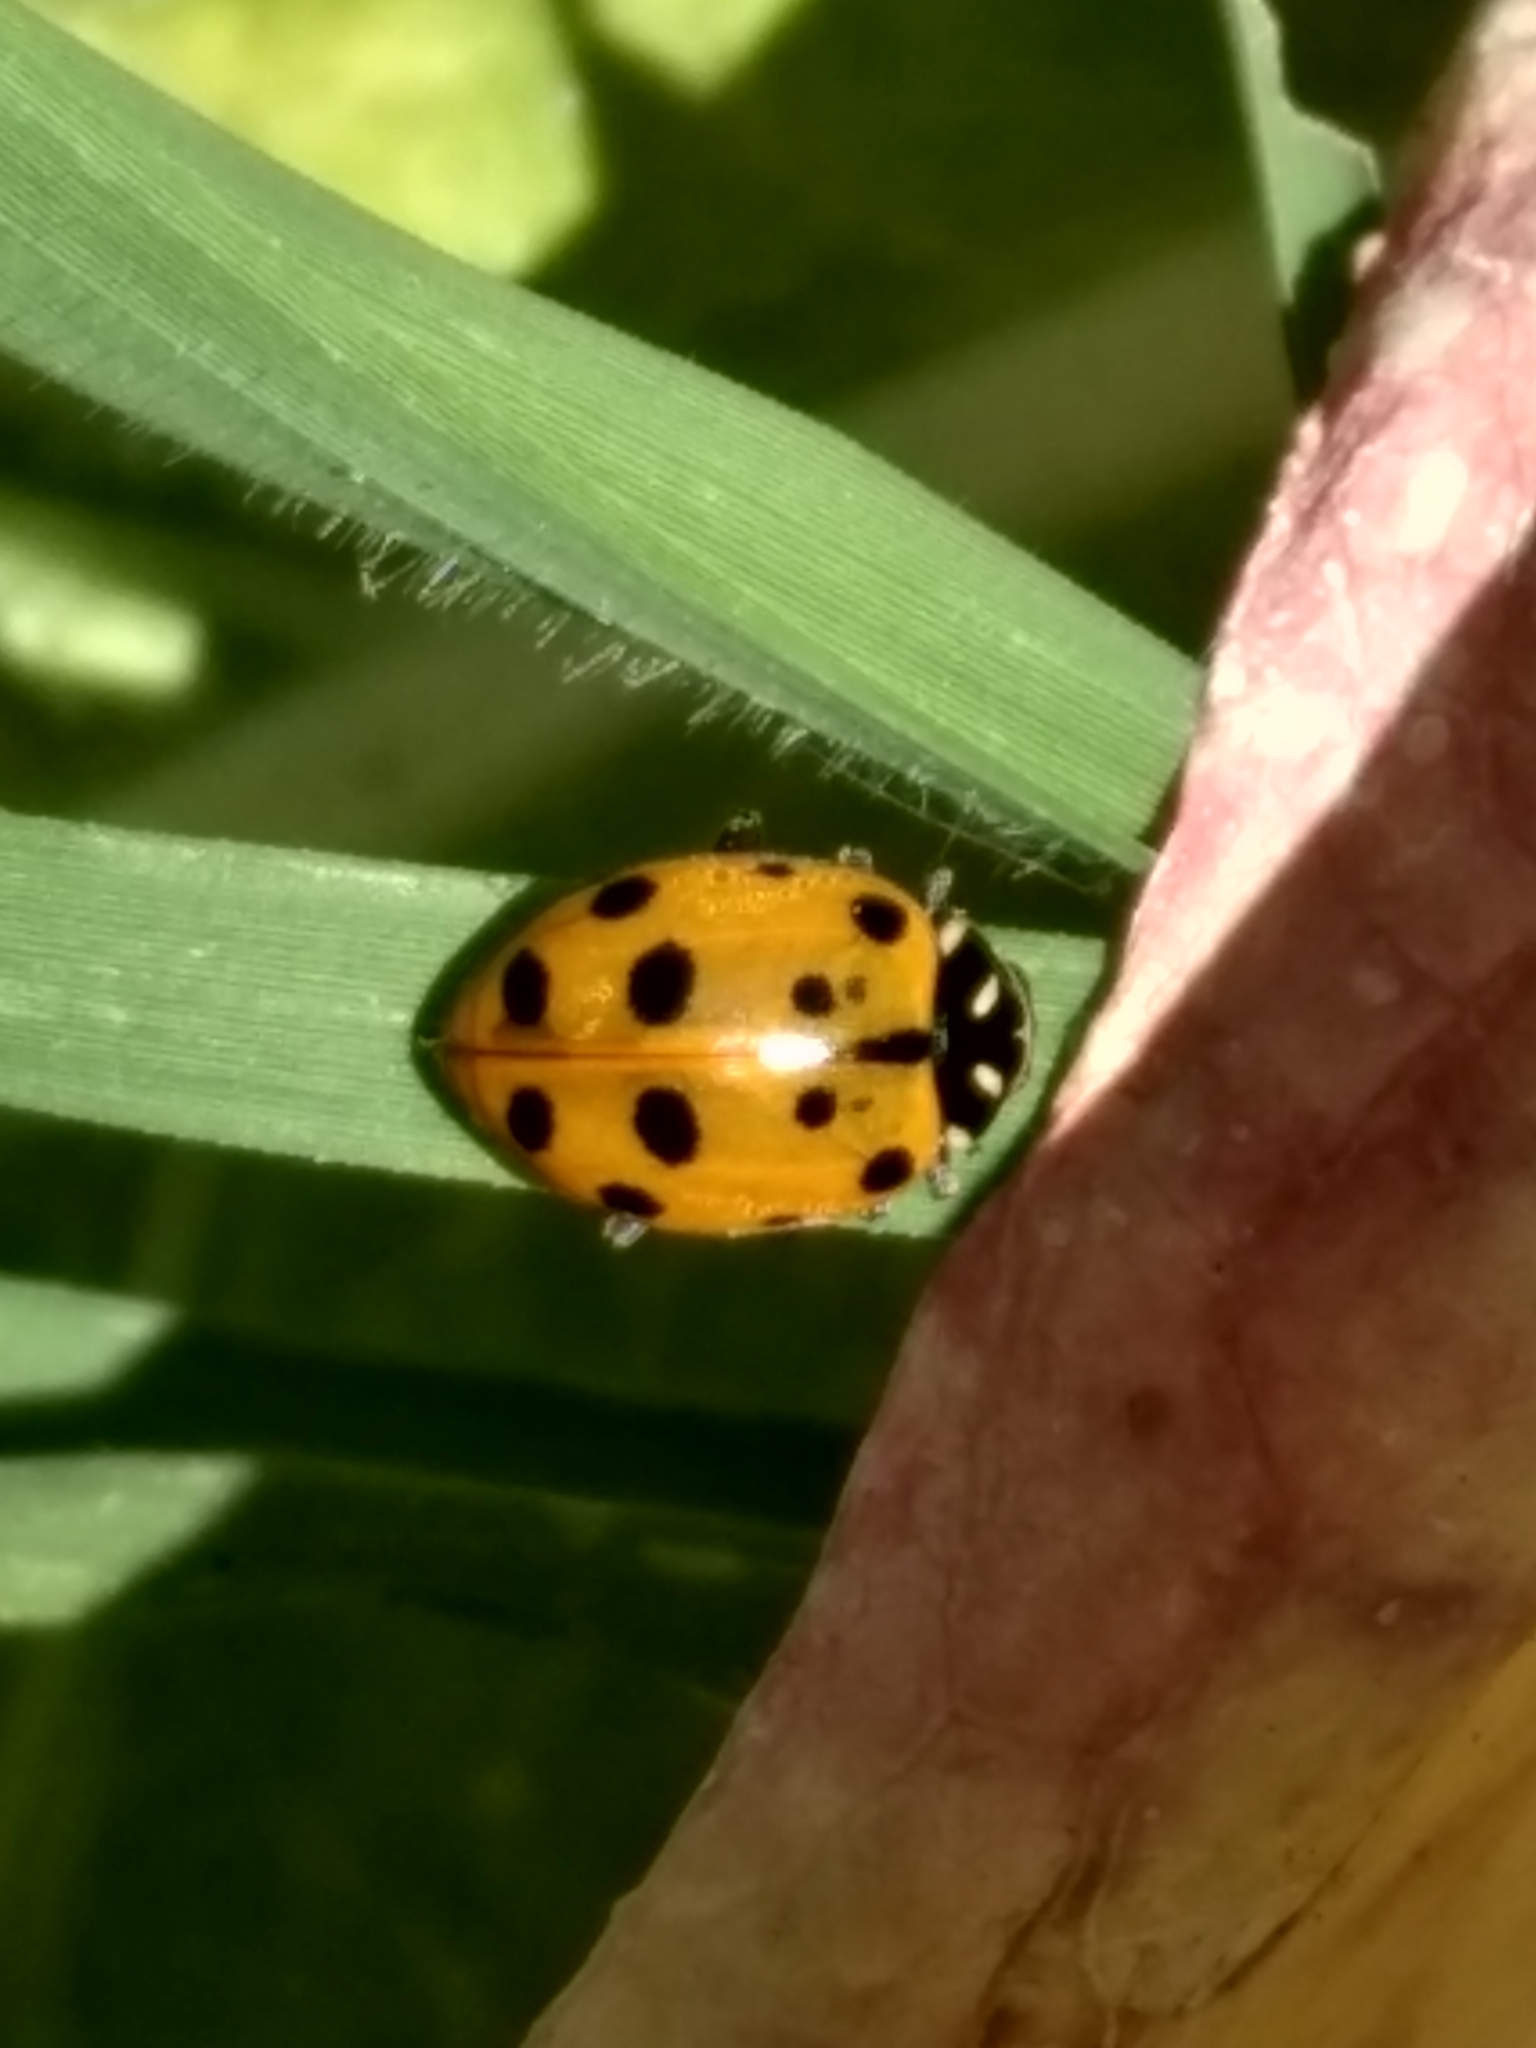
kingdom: Animalia
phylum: Arthropoda
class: Insecta
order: Coleoptera
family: Coccinellidae
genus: Hippodamia
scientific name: Hippodamia convergens
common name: Convergent lady beetle
